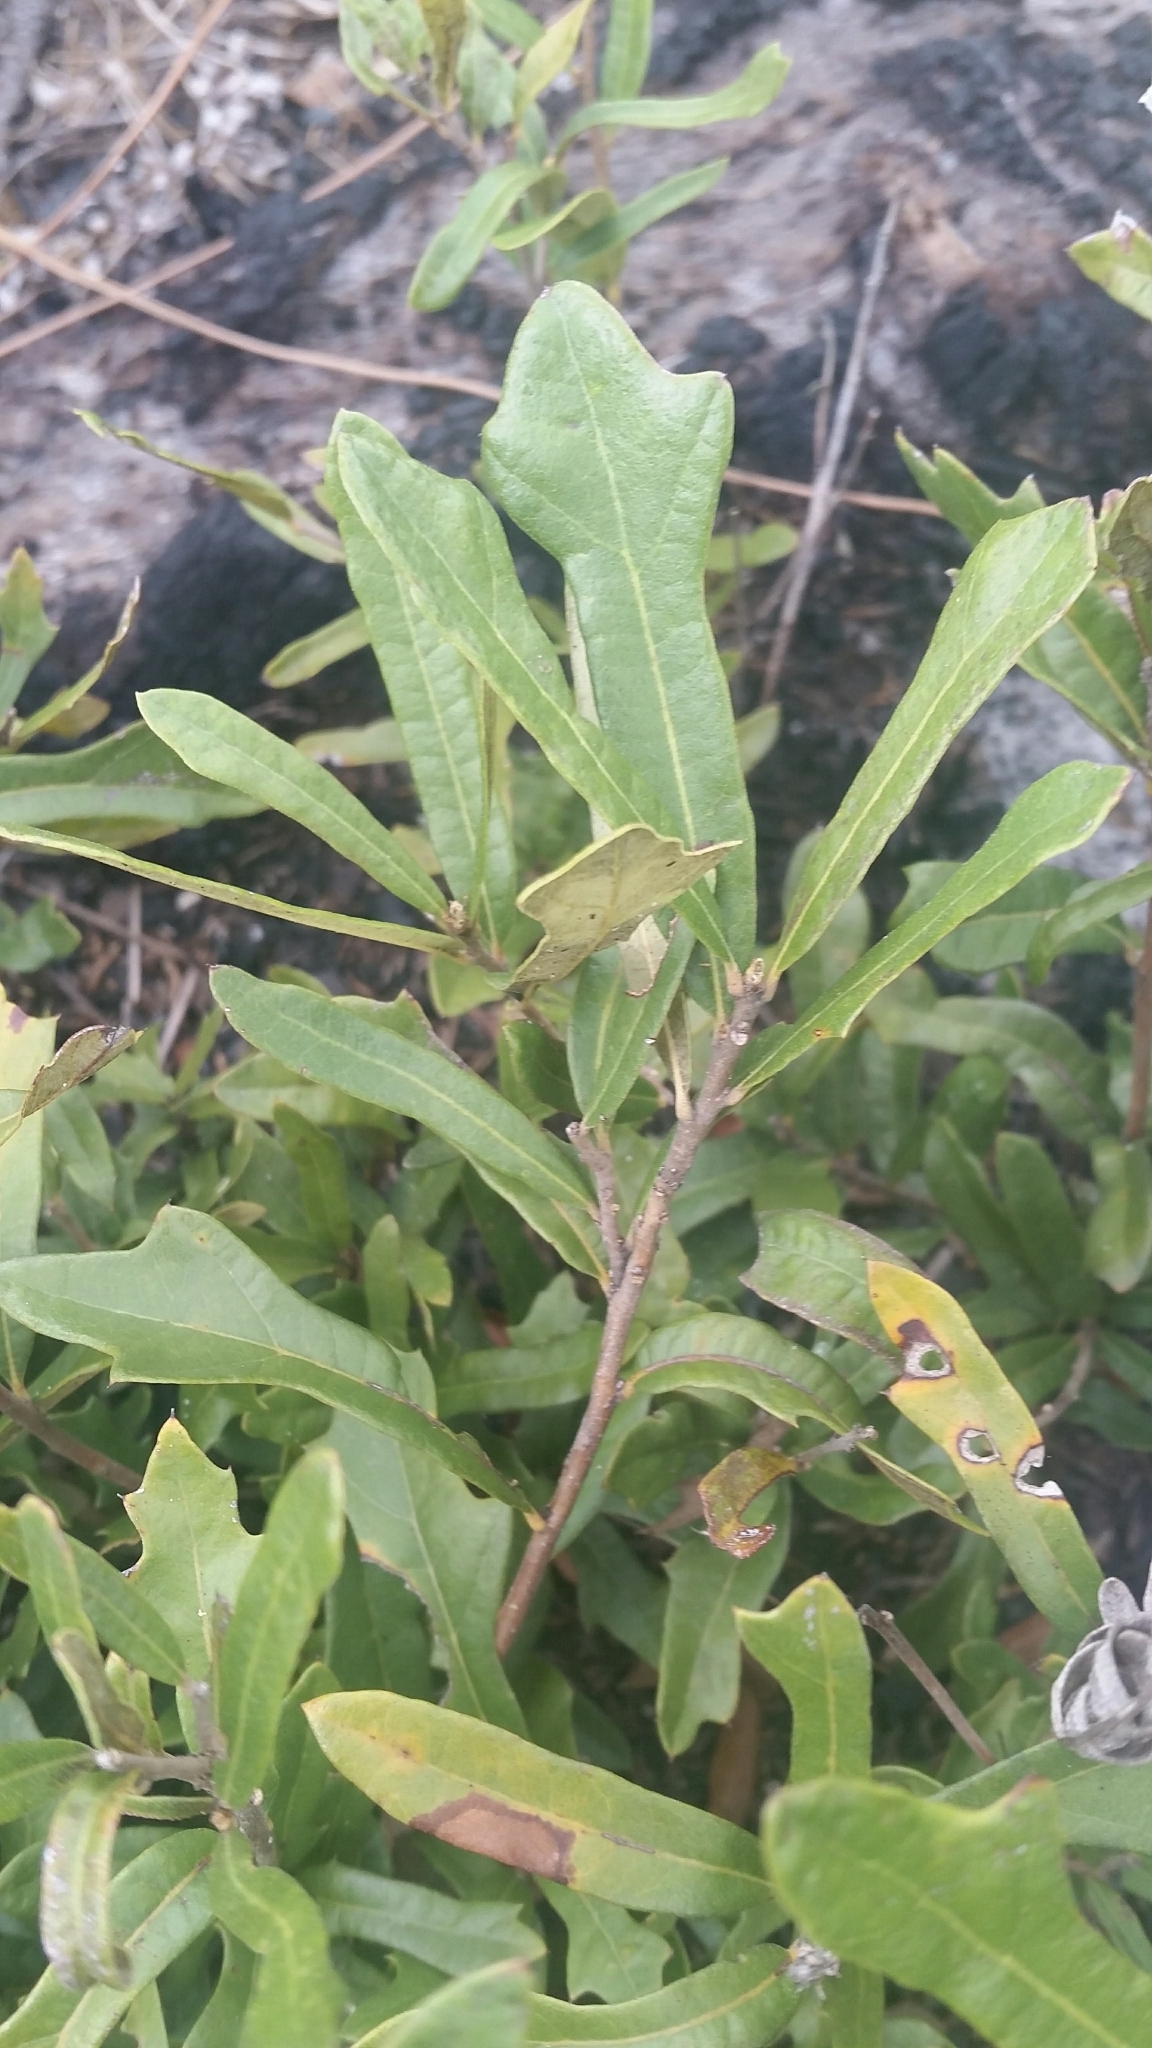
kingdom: Plantae
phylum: Tracheophyta
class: Magnoliopsida
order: Fagales
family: Fagaceae
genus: Quercus
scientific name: Quercus minima
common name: Dwarf live oak
